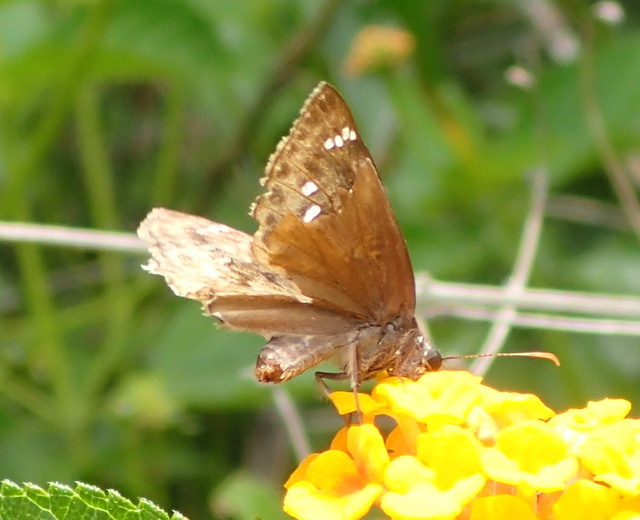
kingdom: Animalia
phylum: Arthropoda
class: Insecta
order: Lepidoptera
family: Hesperiidae
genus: Erynnis
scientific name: Erynnis horatius
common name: Horace's duskywing
